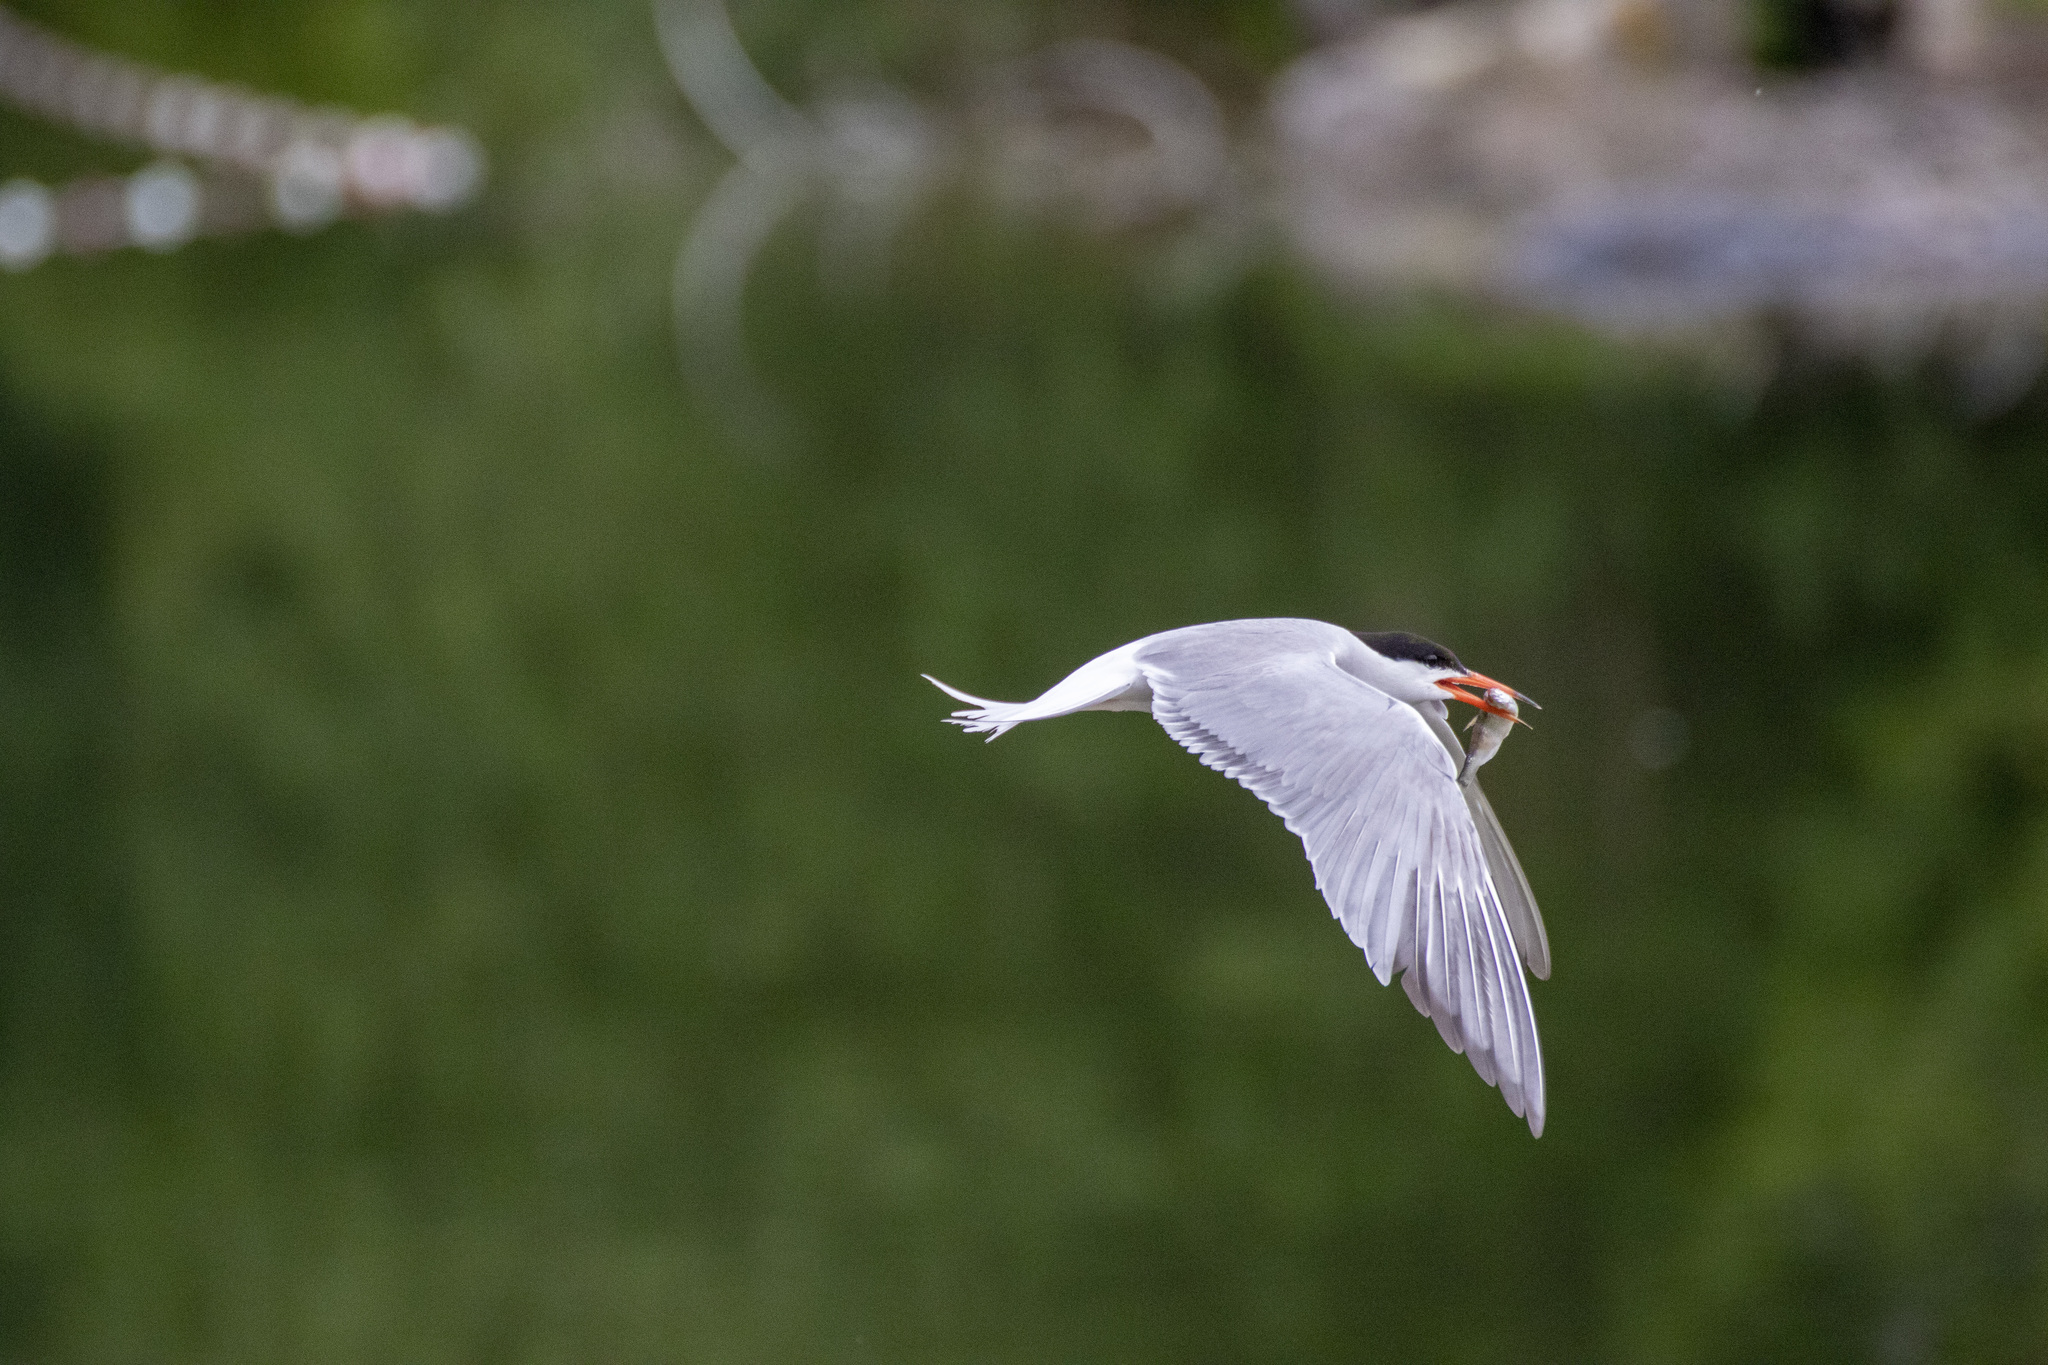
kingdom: Animalia
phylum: Chordata
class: Aves
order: Charadriiformes
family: Laridae
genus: Sterna
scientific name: Sterna hirundo
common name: Common tern
